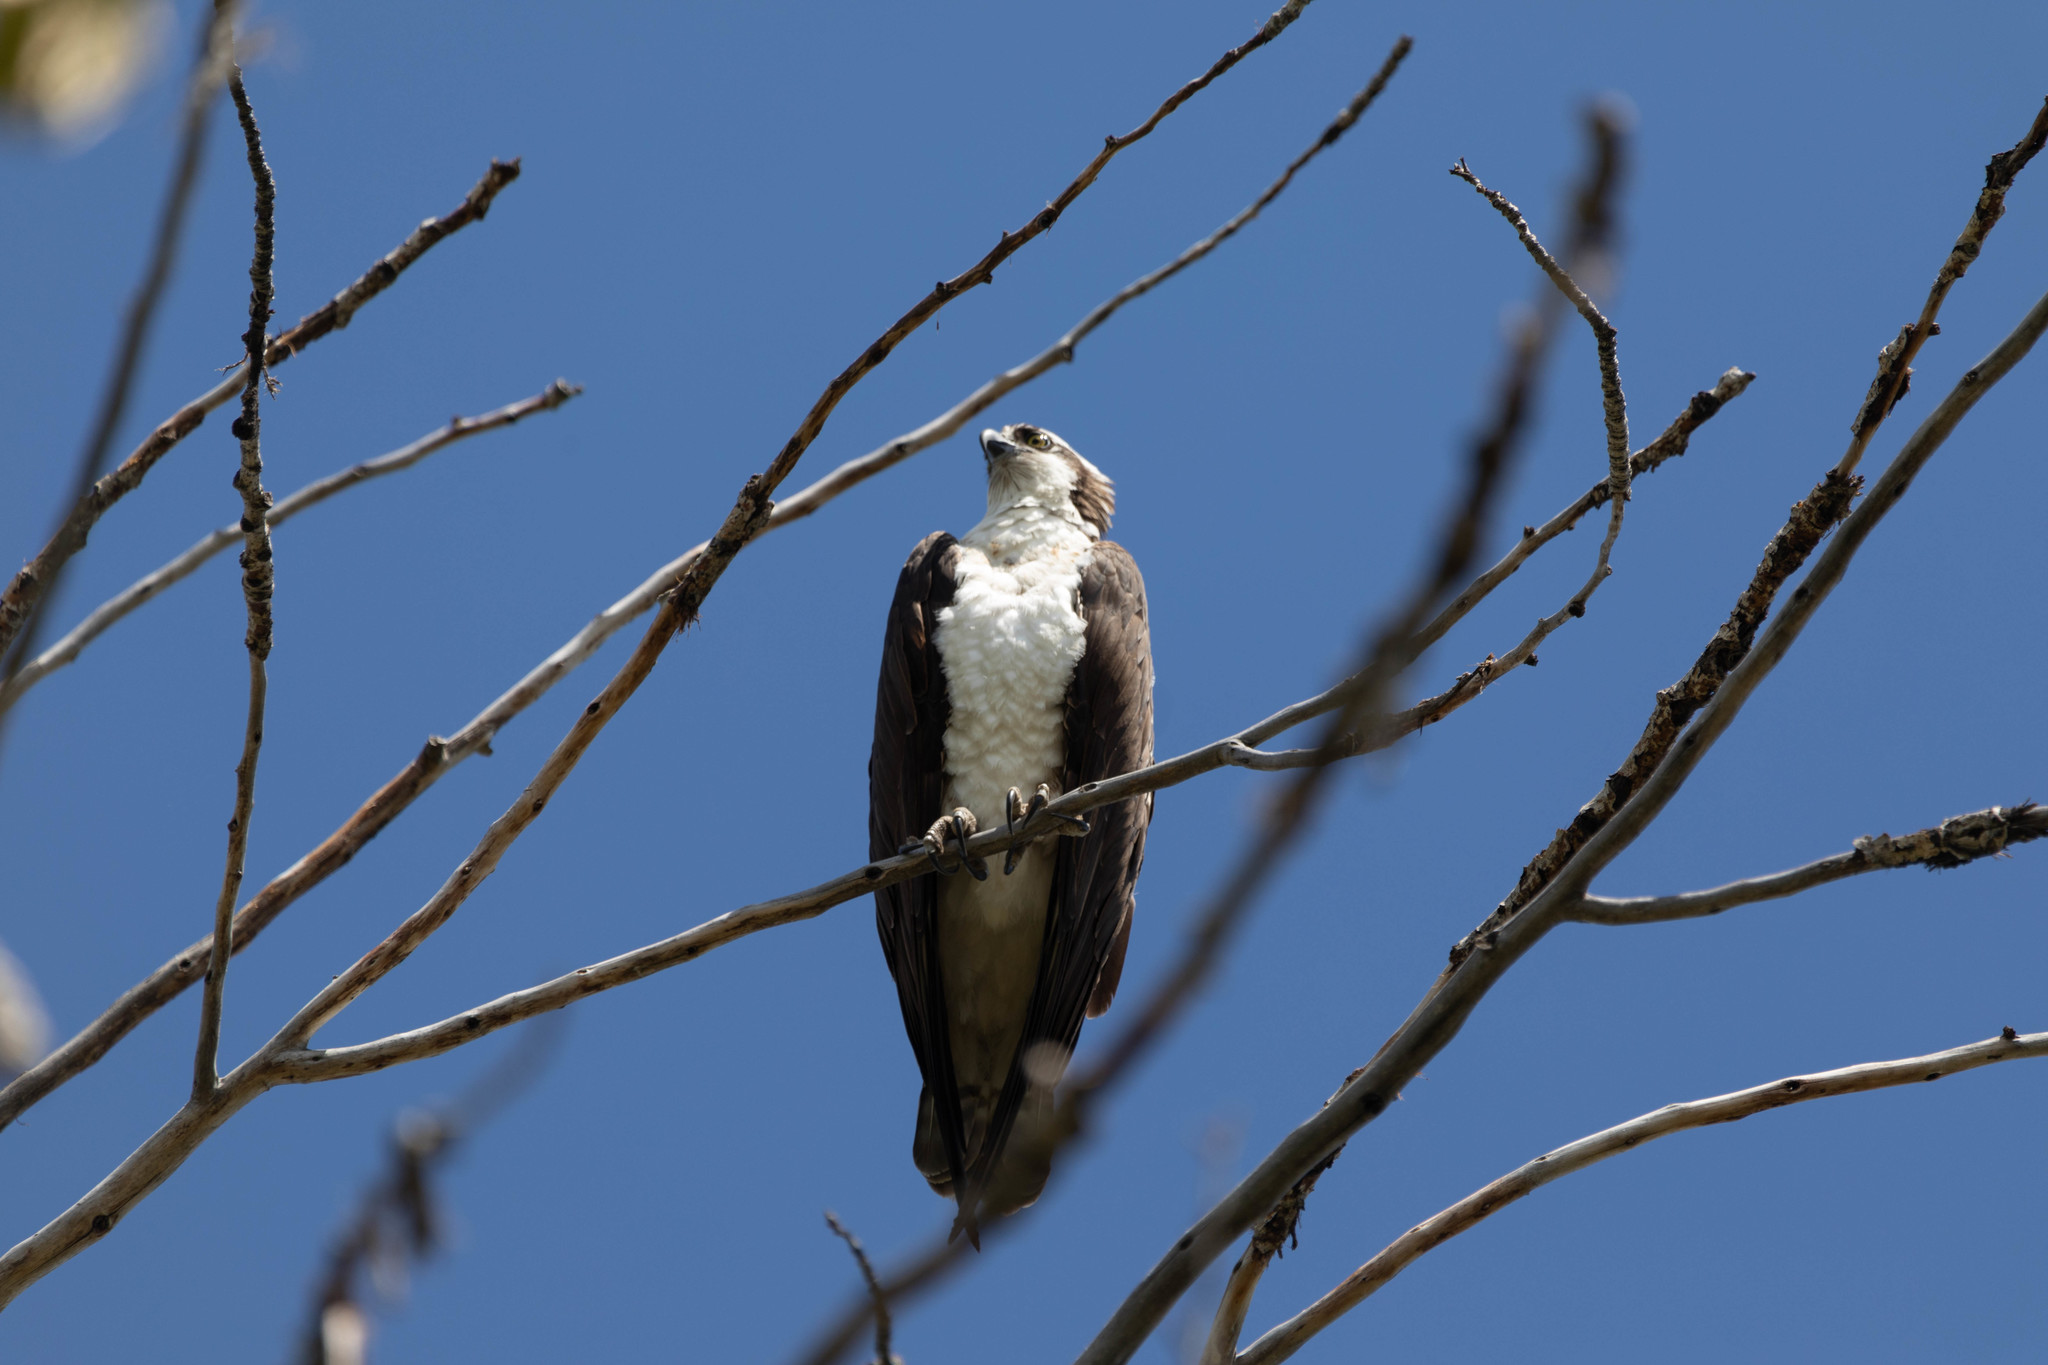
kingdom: Animalia
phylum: Chordata
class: Aves
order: Accipitriformes
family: Pandionidae
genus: Pandion
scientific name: Pandion haliaetus
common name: Osprey
